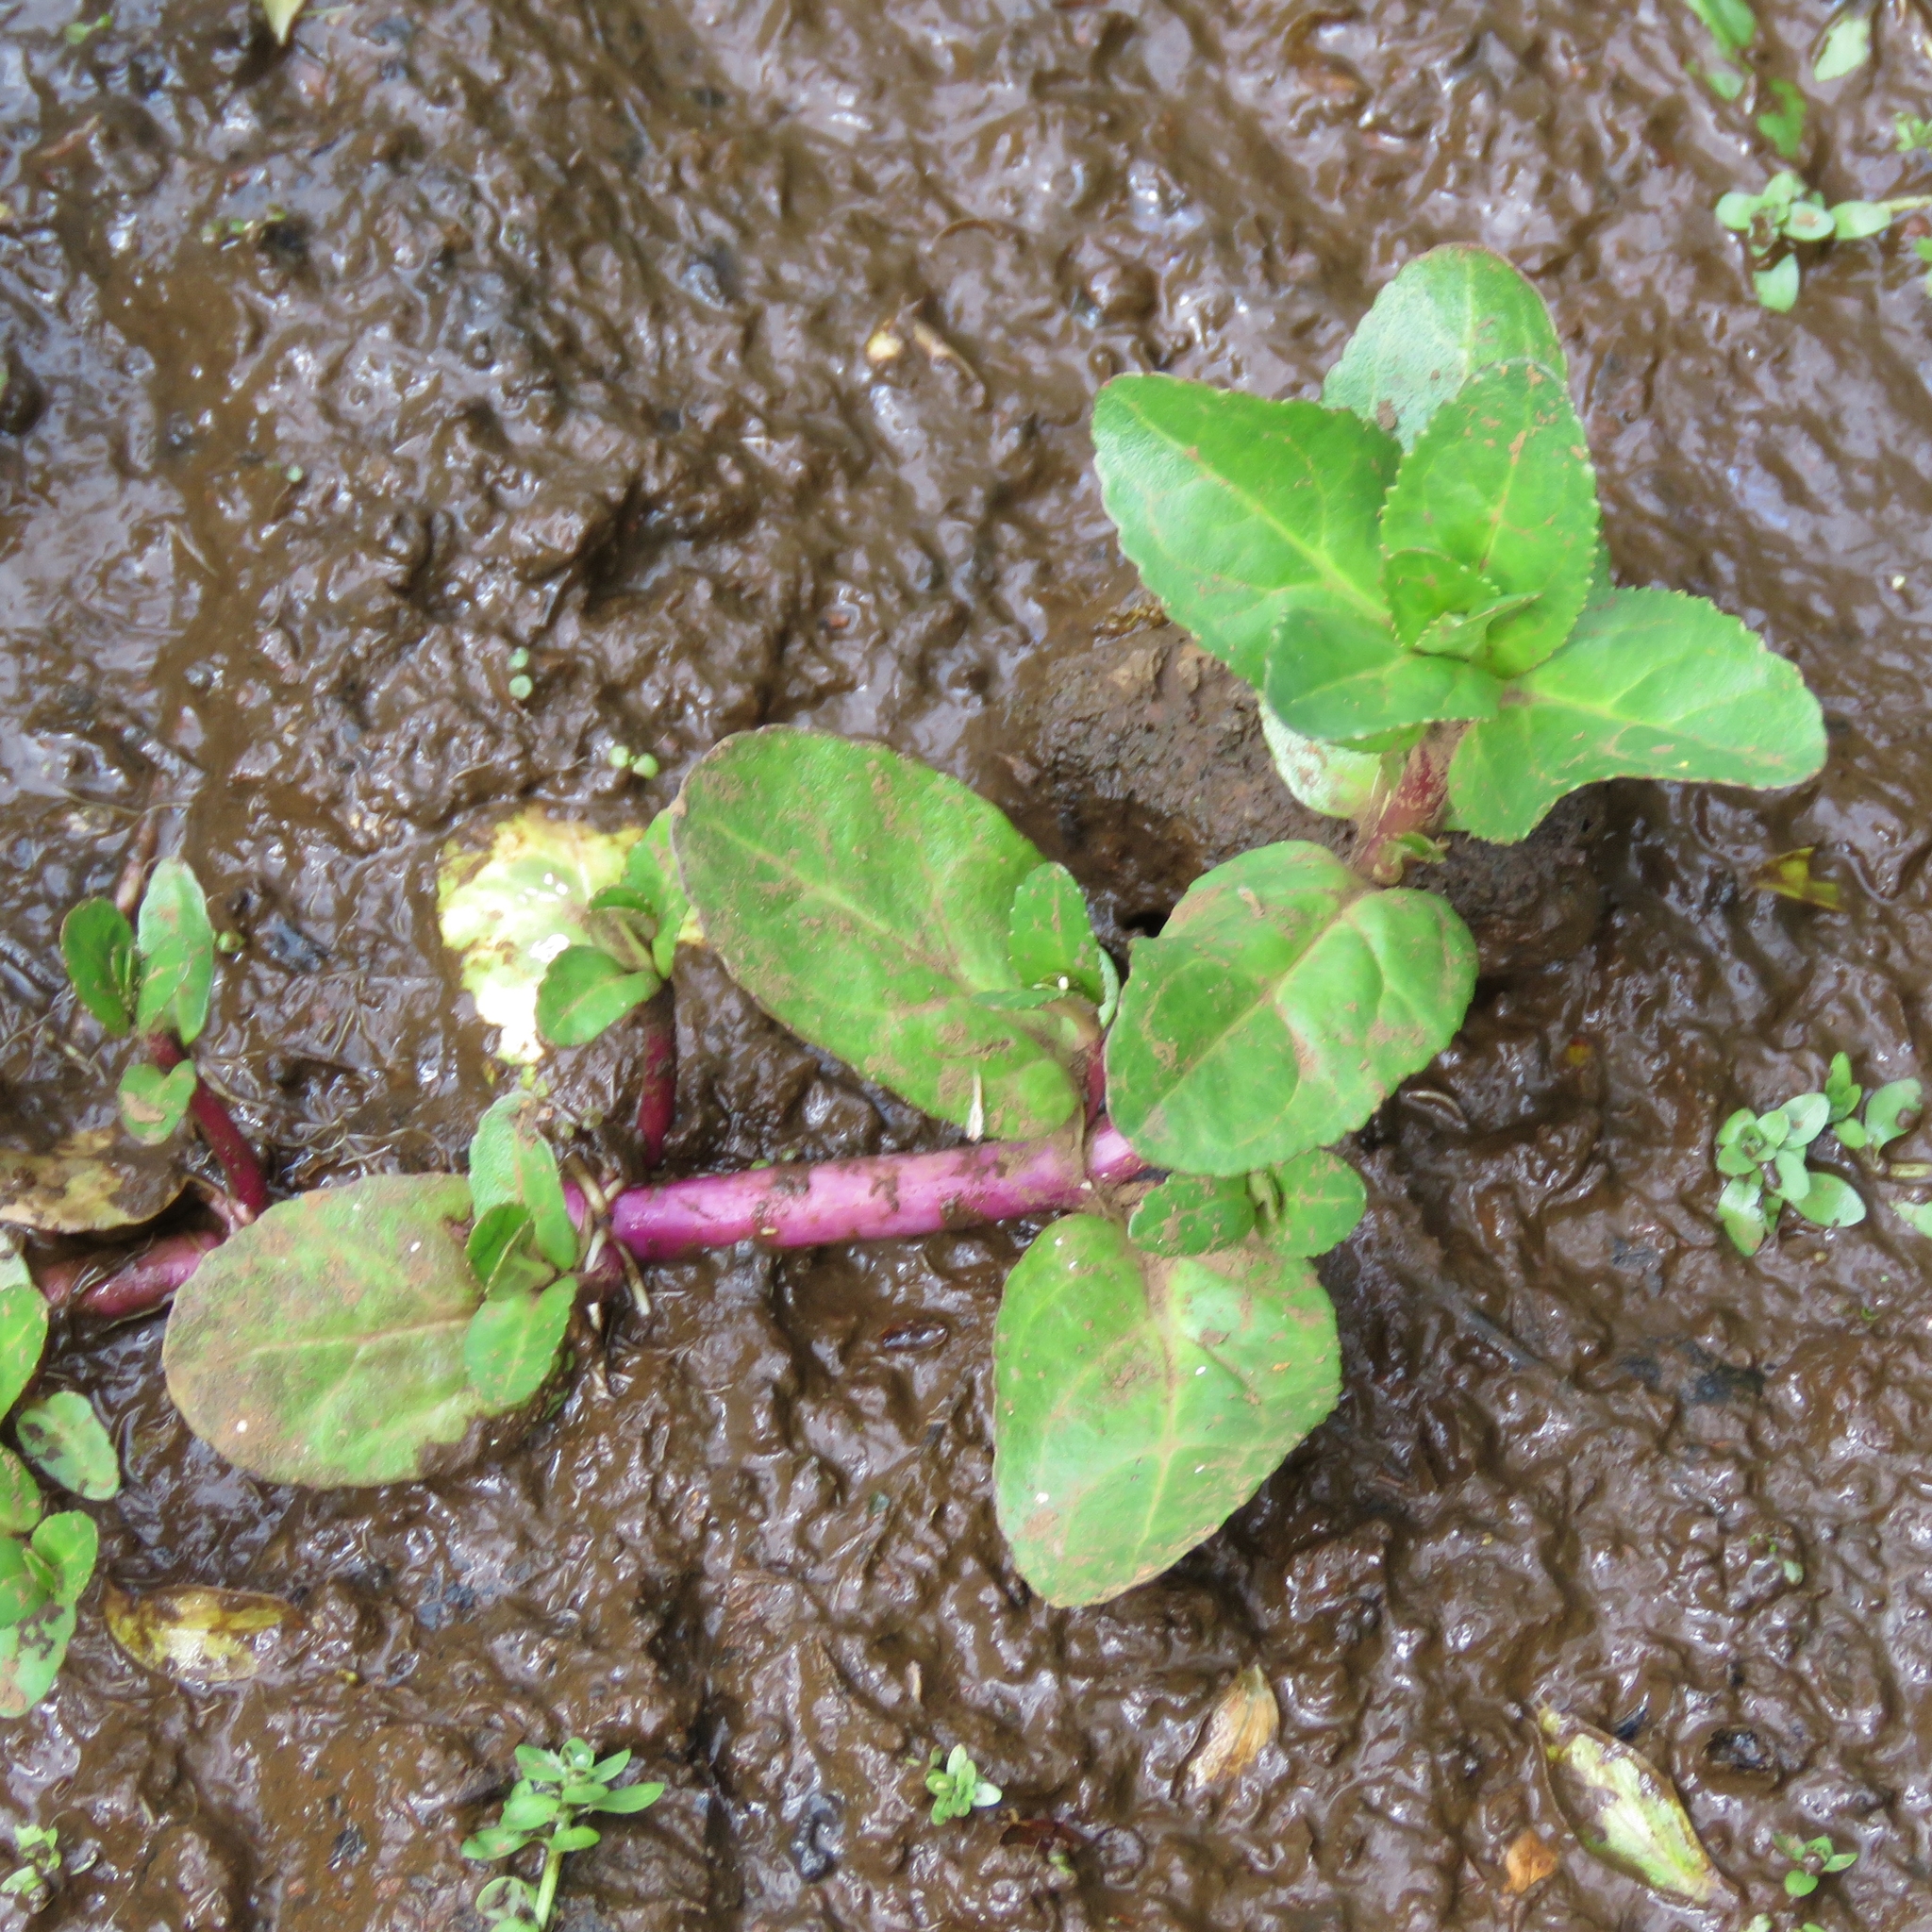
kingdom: Plantae
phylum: Tracheophyta
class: Magnoliopsida
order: Lamiales
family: Plantaginaceae
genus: Veronica
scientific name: Veronica beccabunga
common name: Brooklime
